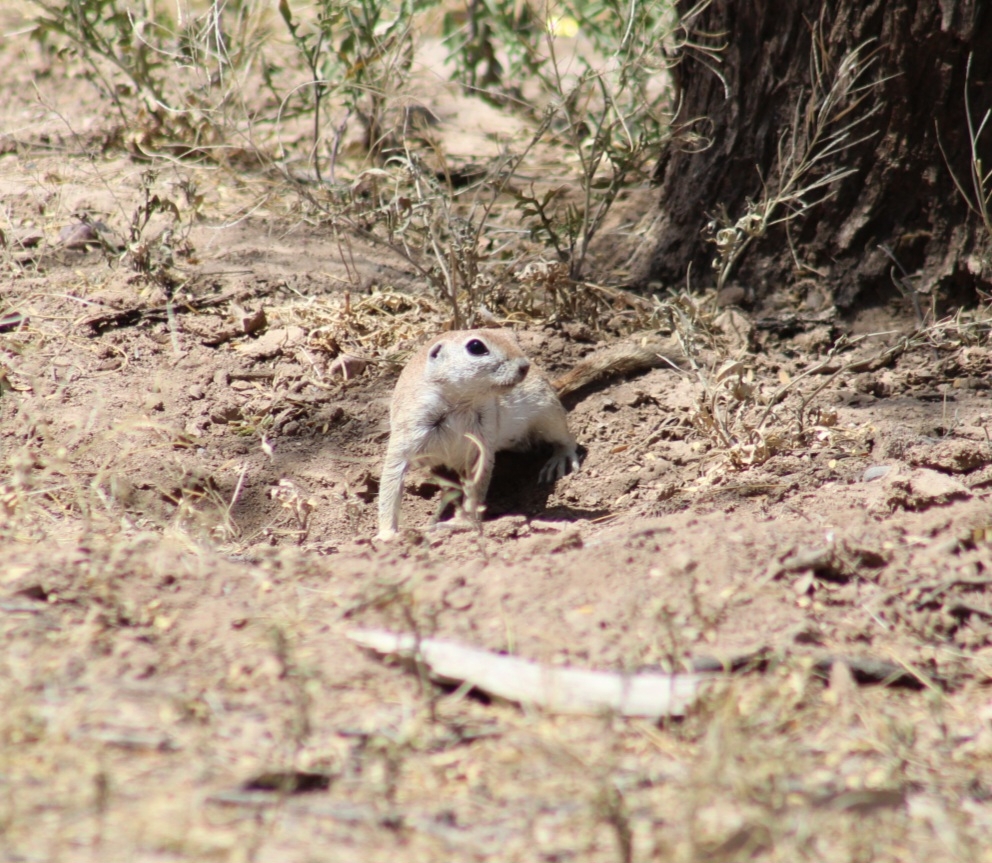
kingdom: Animalia
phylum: Chordata
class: Mammalia
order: Rodentia
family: Sciuridae
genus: Xerospermophilus
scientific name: Xerospermophilus tereticaudus
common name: Round-tailed ground squirrel
